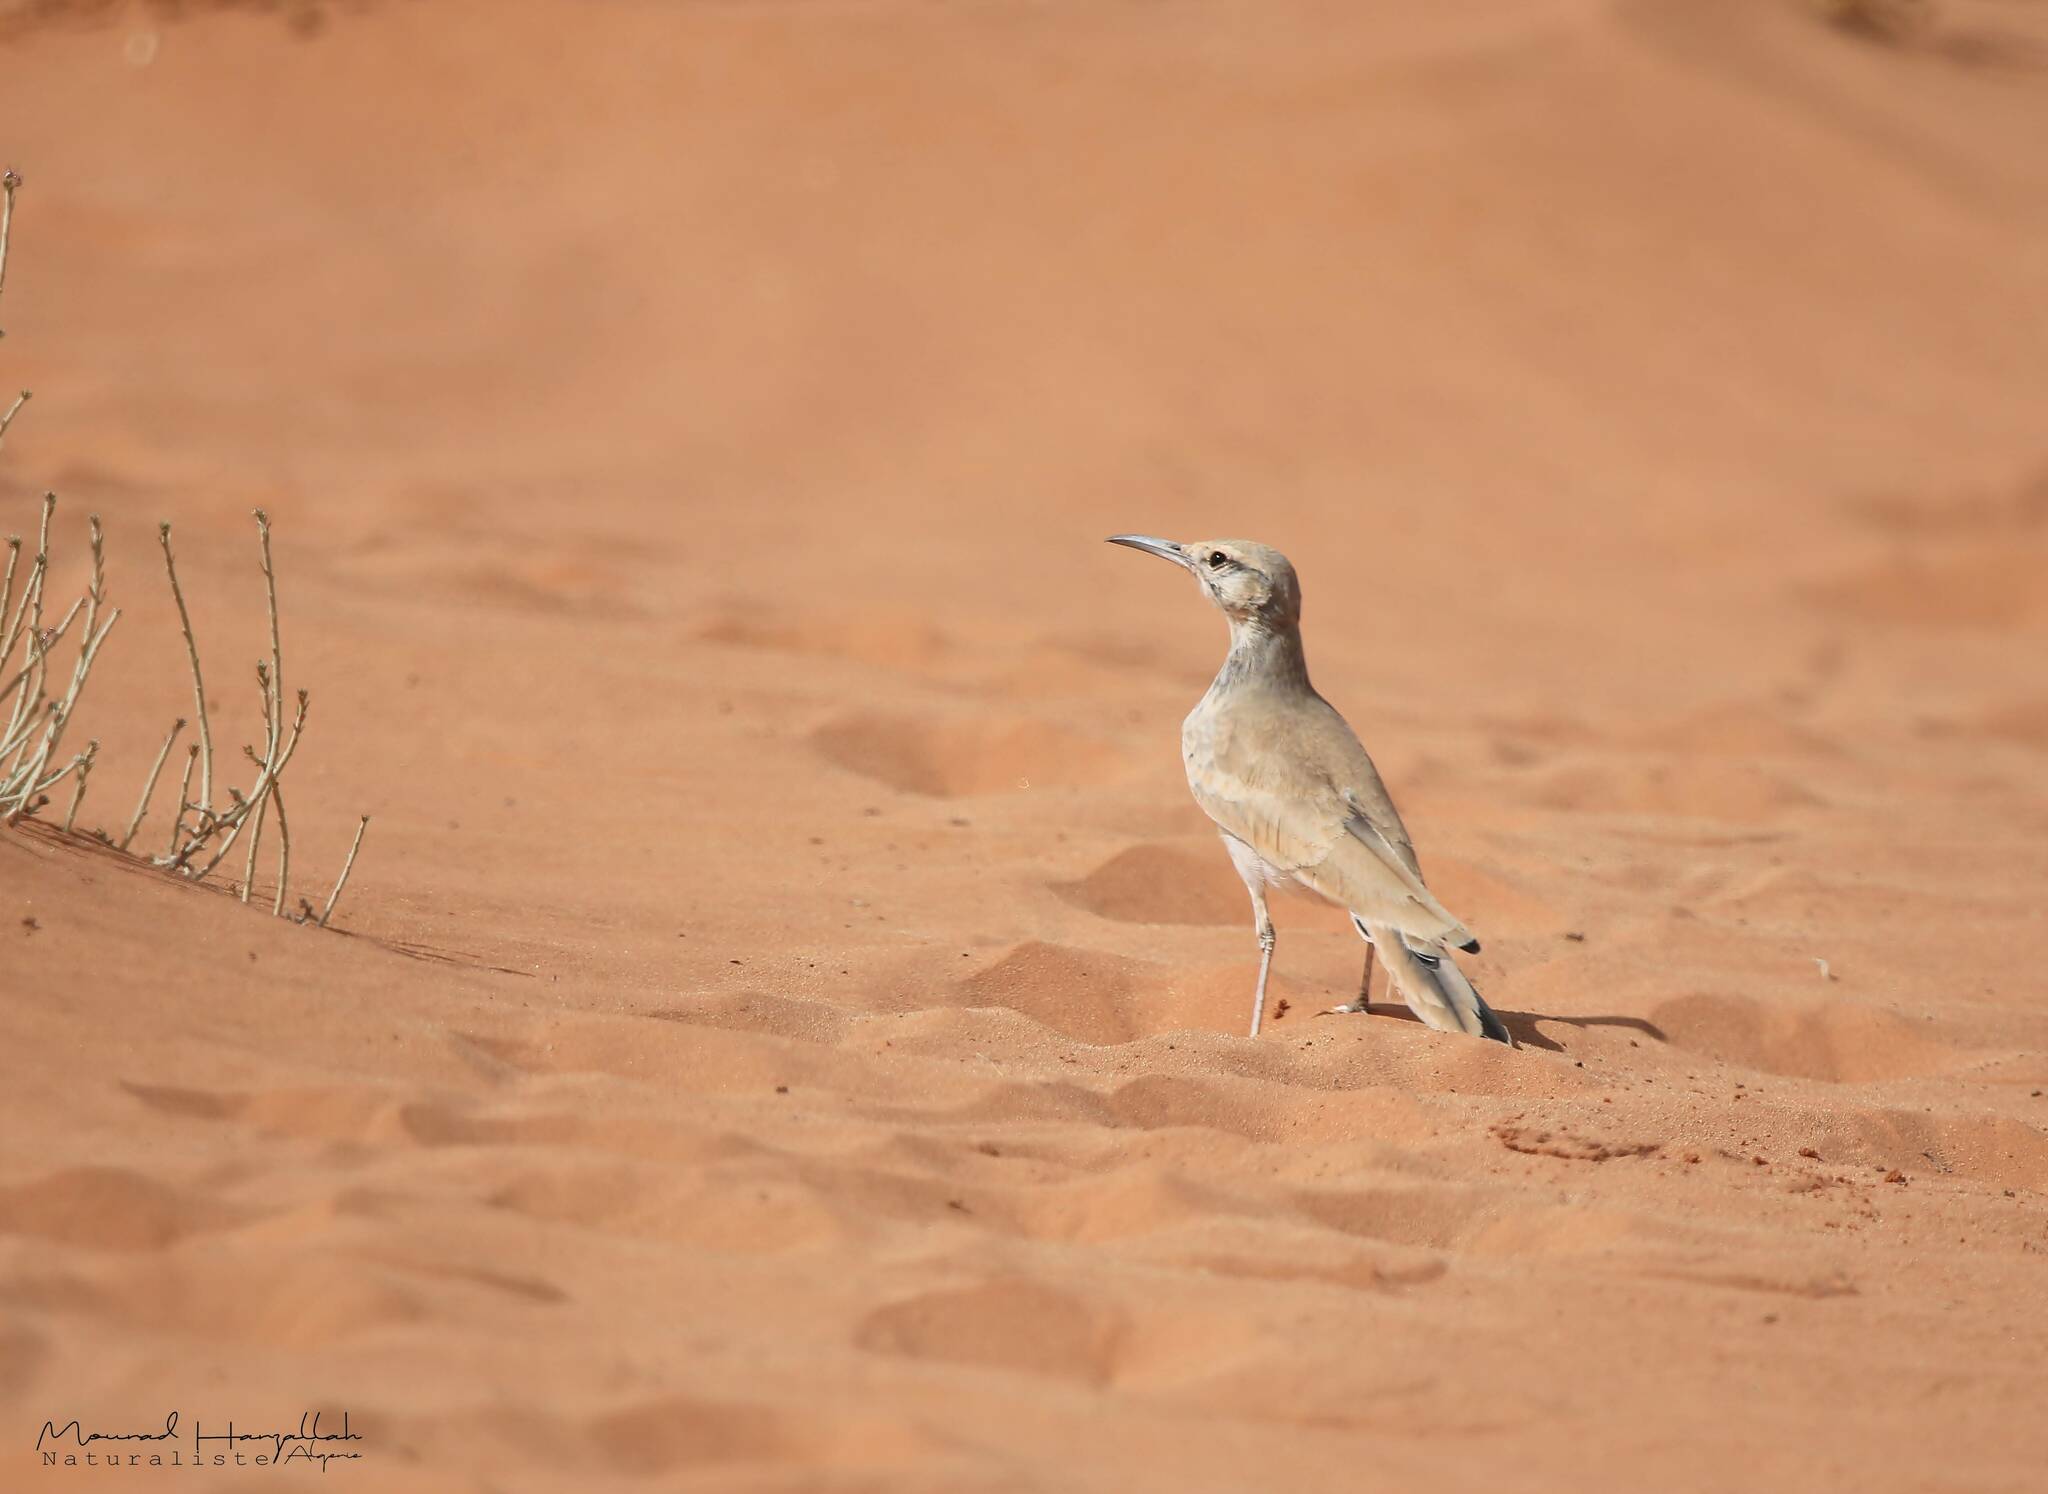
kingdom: Animalia
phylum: Chordata
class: Aves
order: Passeriformes
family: Alaudidae
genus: Alaemon
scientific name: Alaemon alaudipes
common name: Greater hoopoe-lark
